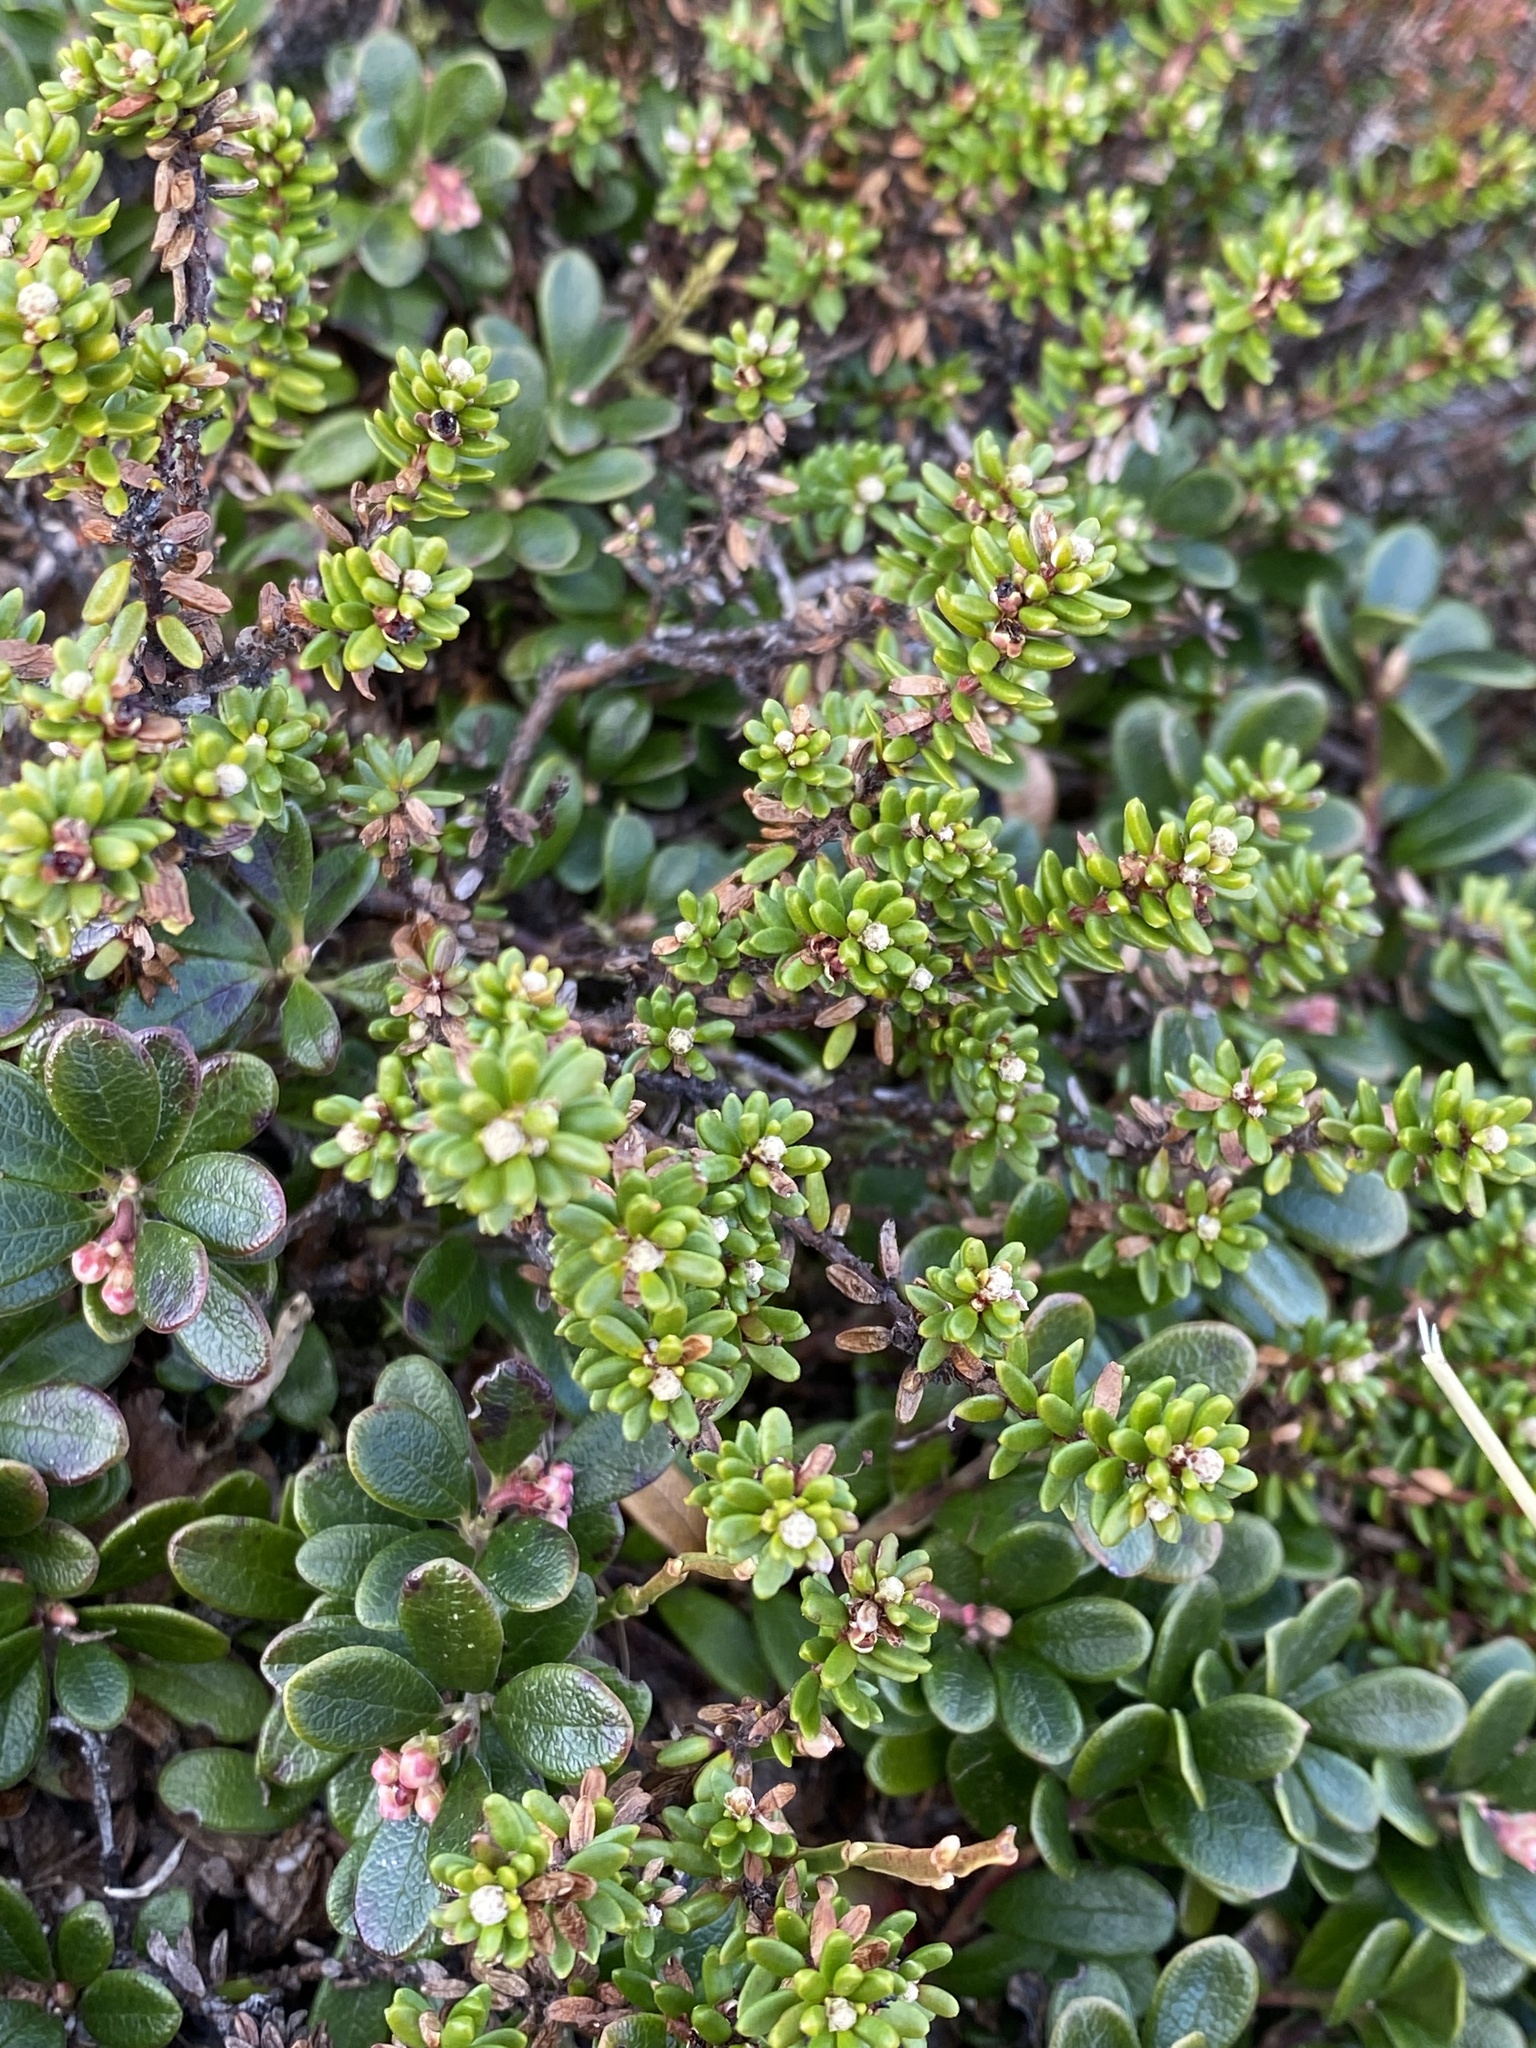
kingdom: Plantae
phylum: Tracheophyta
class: Magnoliopsida
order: Ericales
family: Ericaceae
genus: Empetrum
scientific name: Empetrum nigrum
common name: Black crowberry
